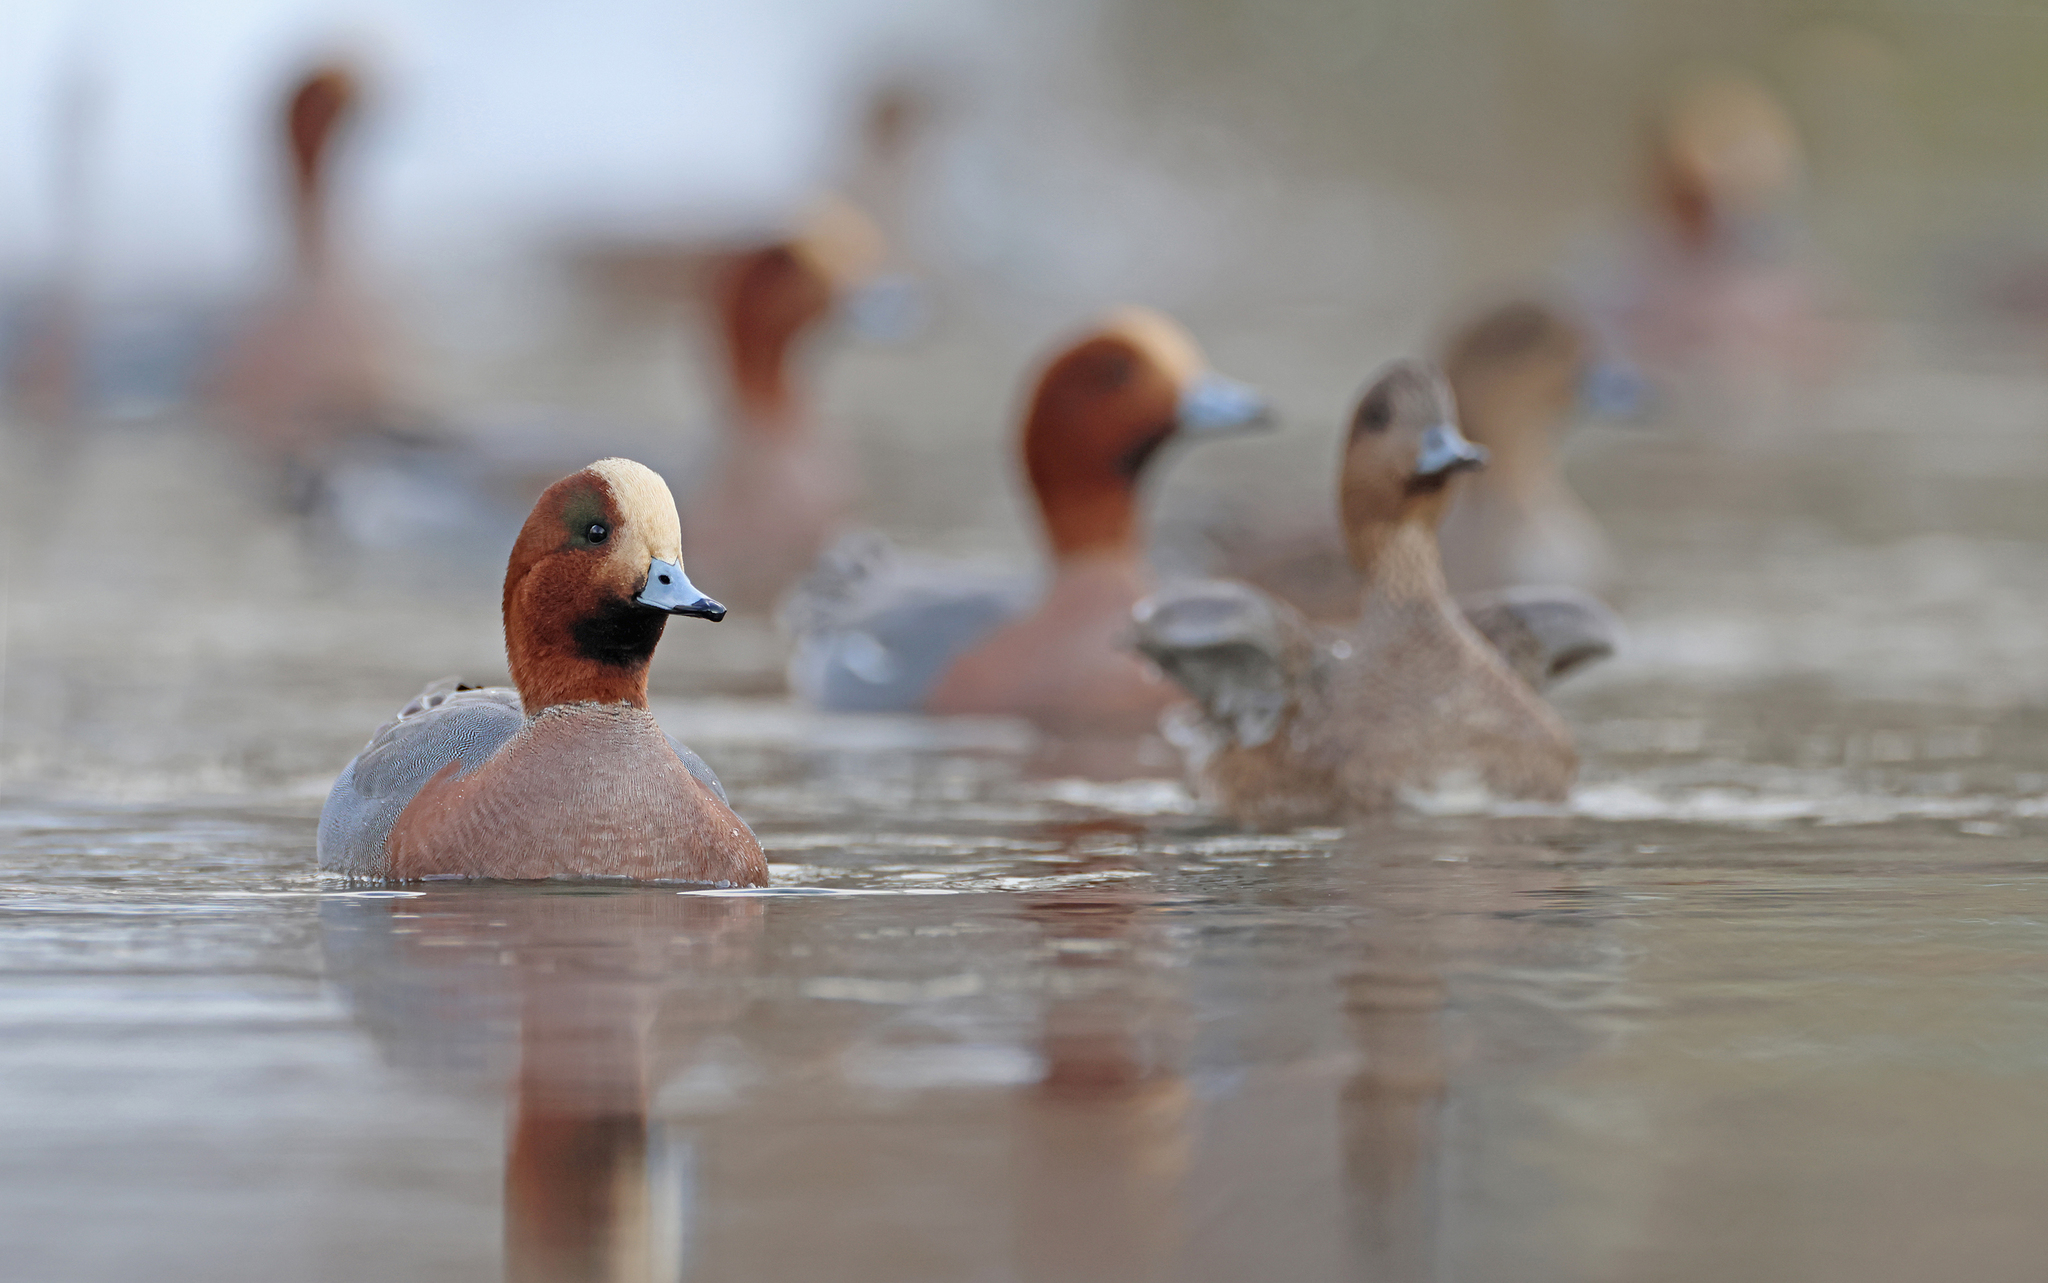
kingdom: Animalia
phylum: Chordata
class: Aves
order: Anseriformes
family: Anatidae
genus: Mareca
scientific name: Mareca penelope
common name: Eurasian wigeon
